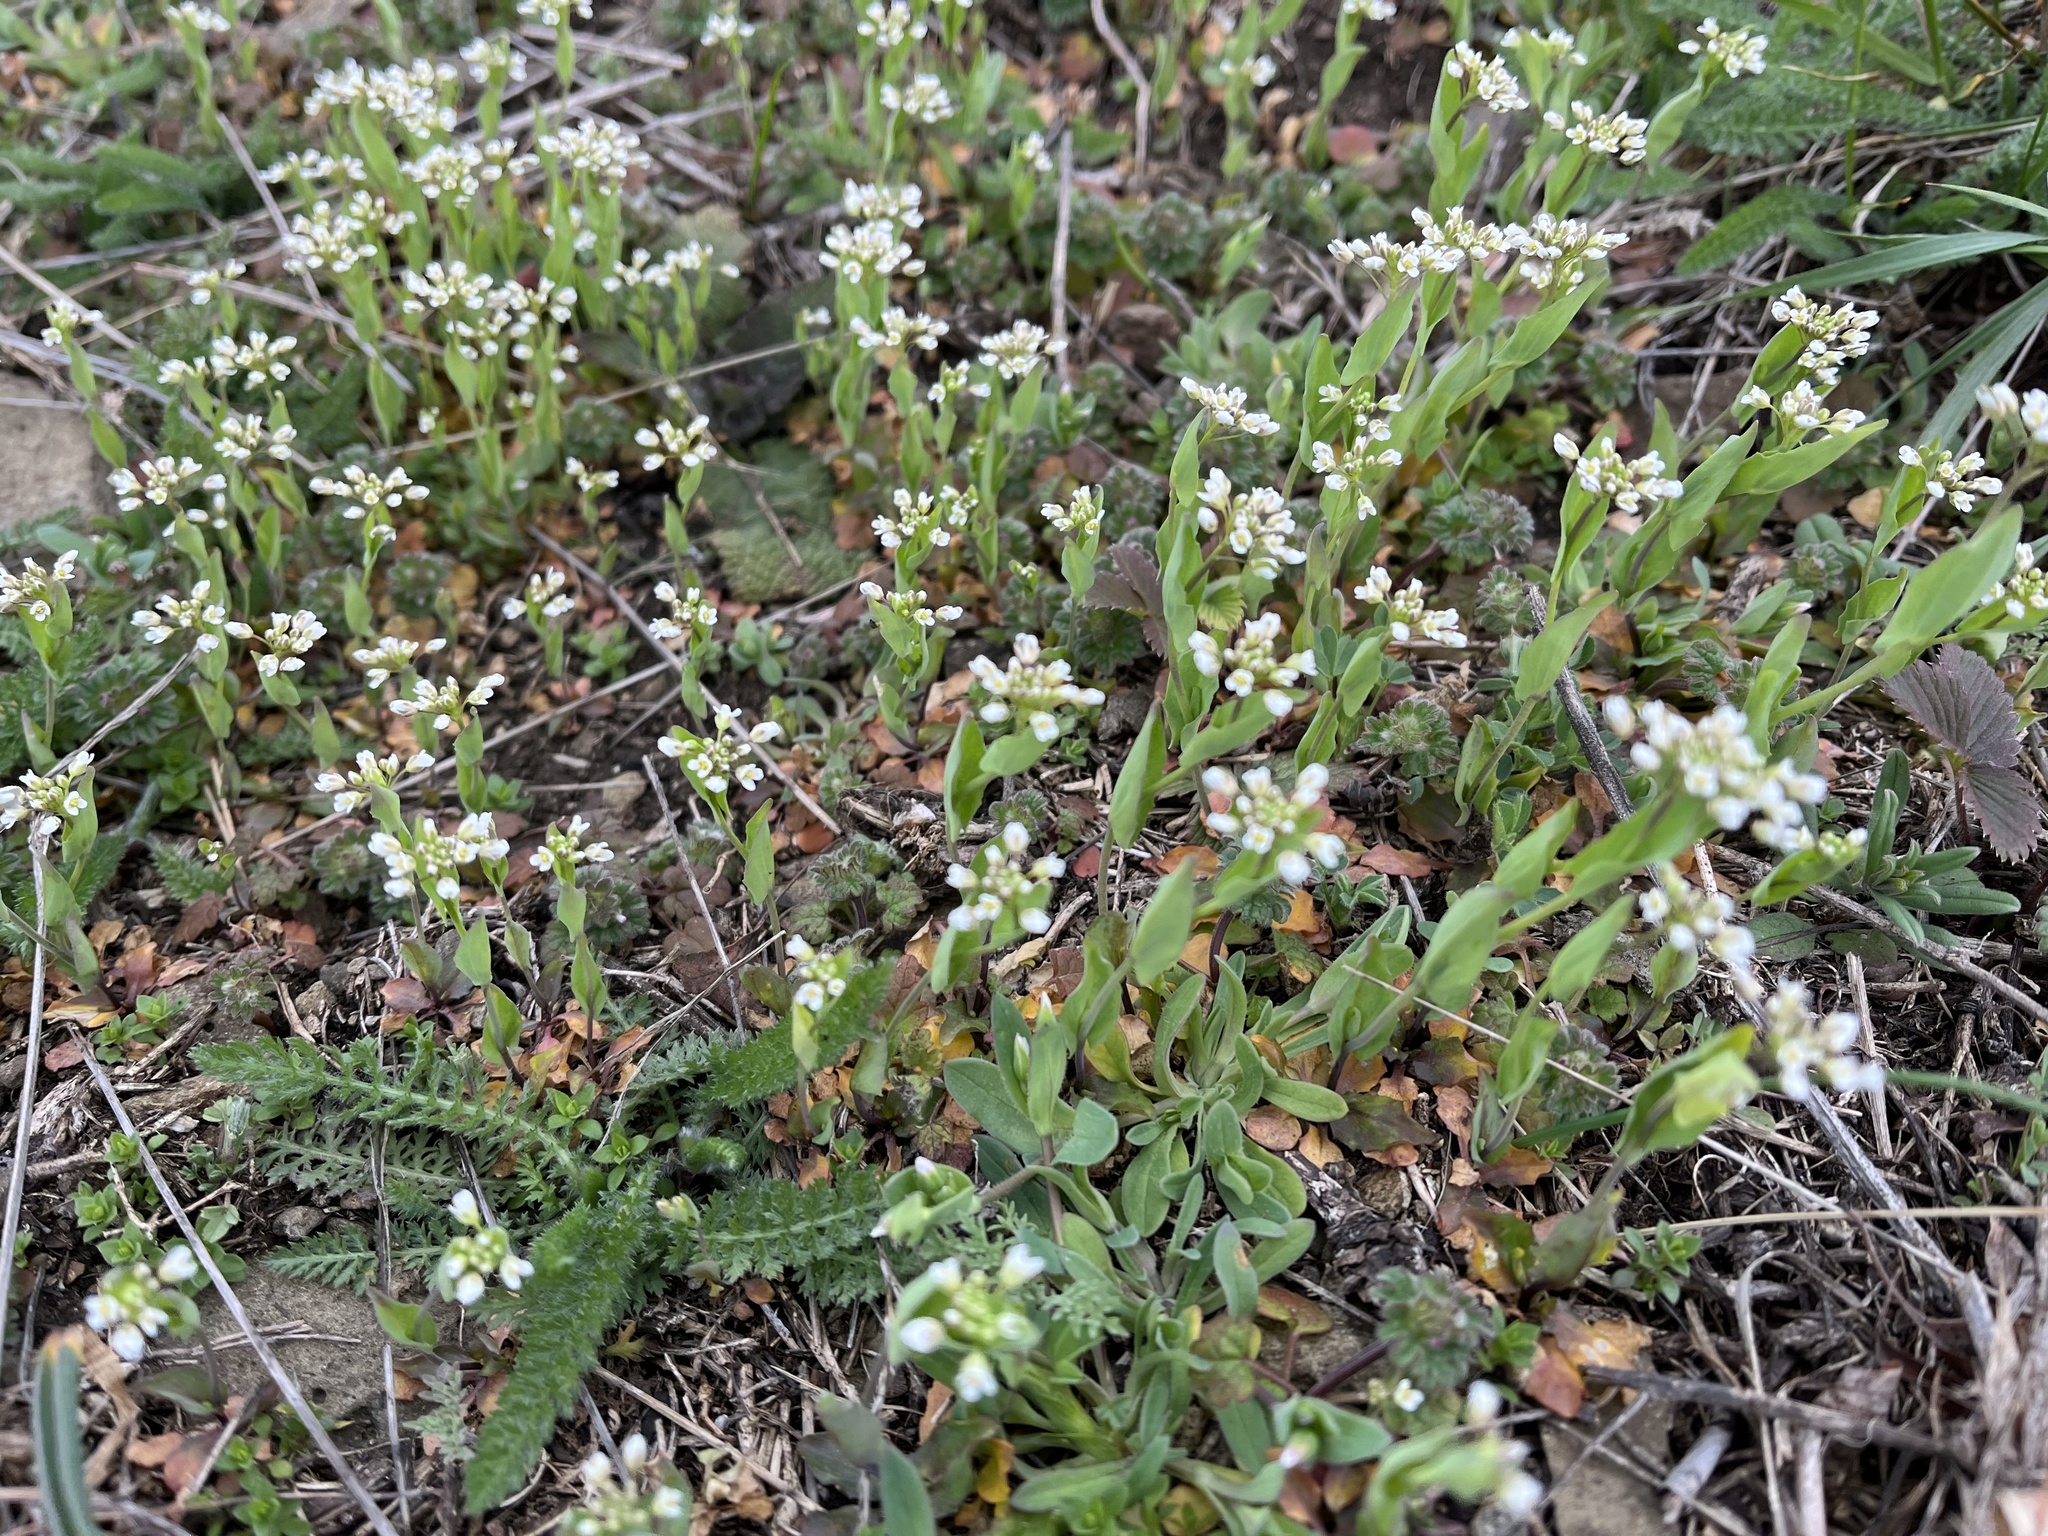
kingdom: Plantae
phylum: Tracheophyta
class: Magnoliopsida
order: Brassicales
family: Brassicaceae
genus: Noccaea
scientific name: Noccaea perfoliata
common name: Perfoliate pennycress
